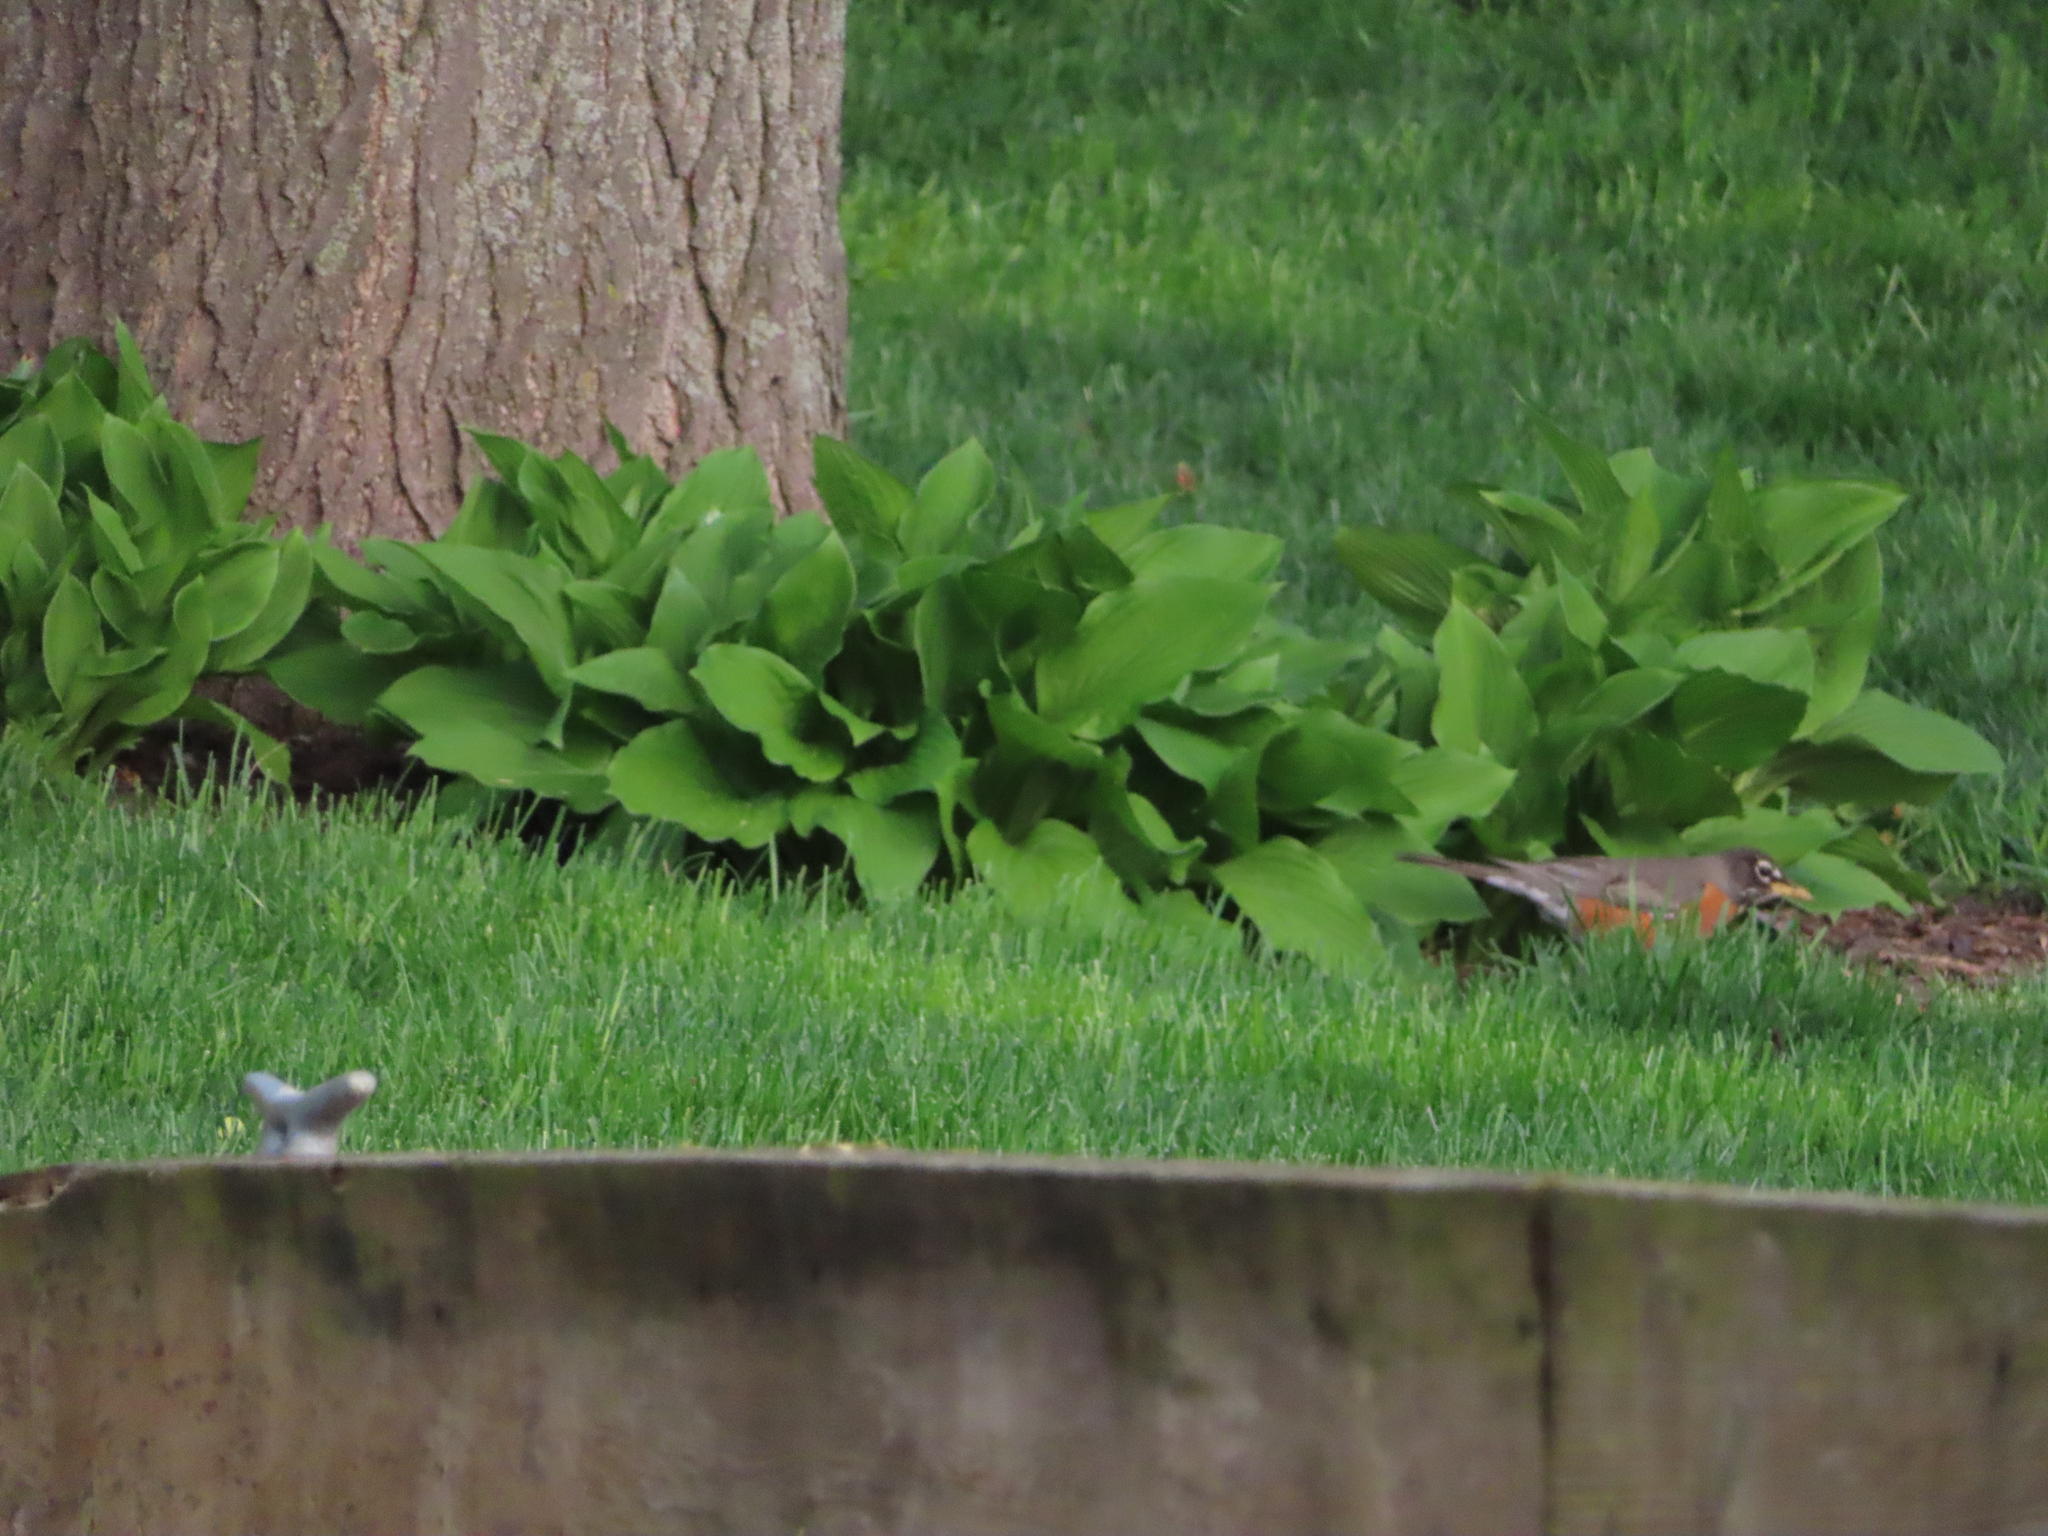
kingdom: Animalia
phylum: Chordata
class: Aves
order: Passeriformes
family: Turdidae
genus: Turdus
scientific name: Turdus migratorius
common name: American robin
